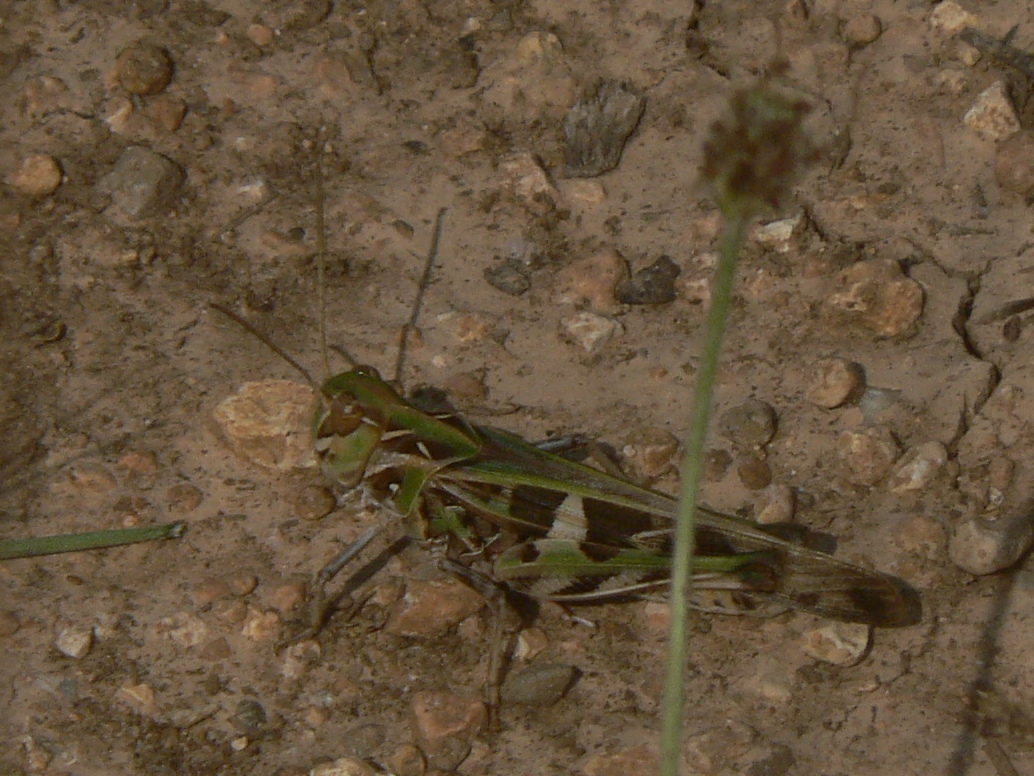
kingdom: Animalia
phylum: Arthropoda
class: Insecta
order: Orthoptera
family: Acrididae
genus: Oedaleus
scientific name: Oedaleus decorus
